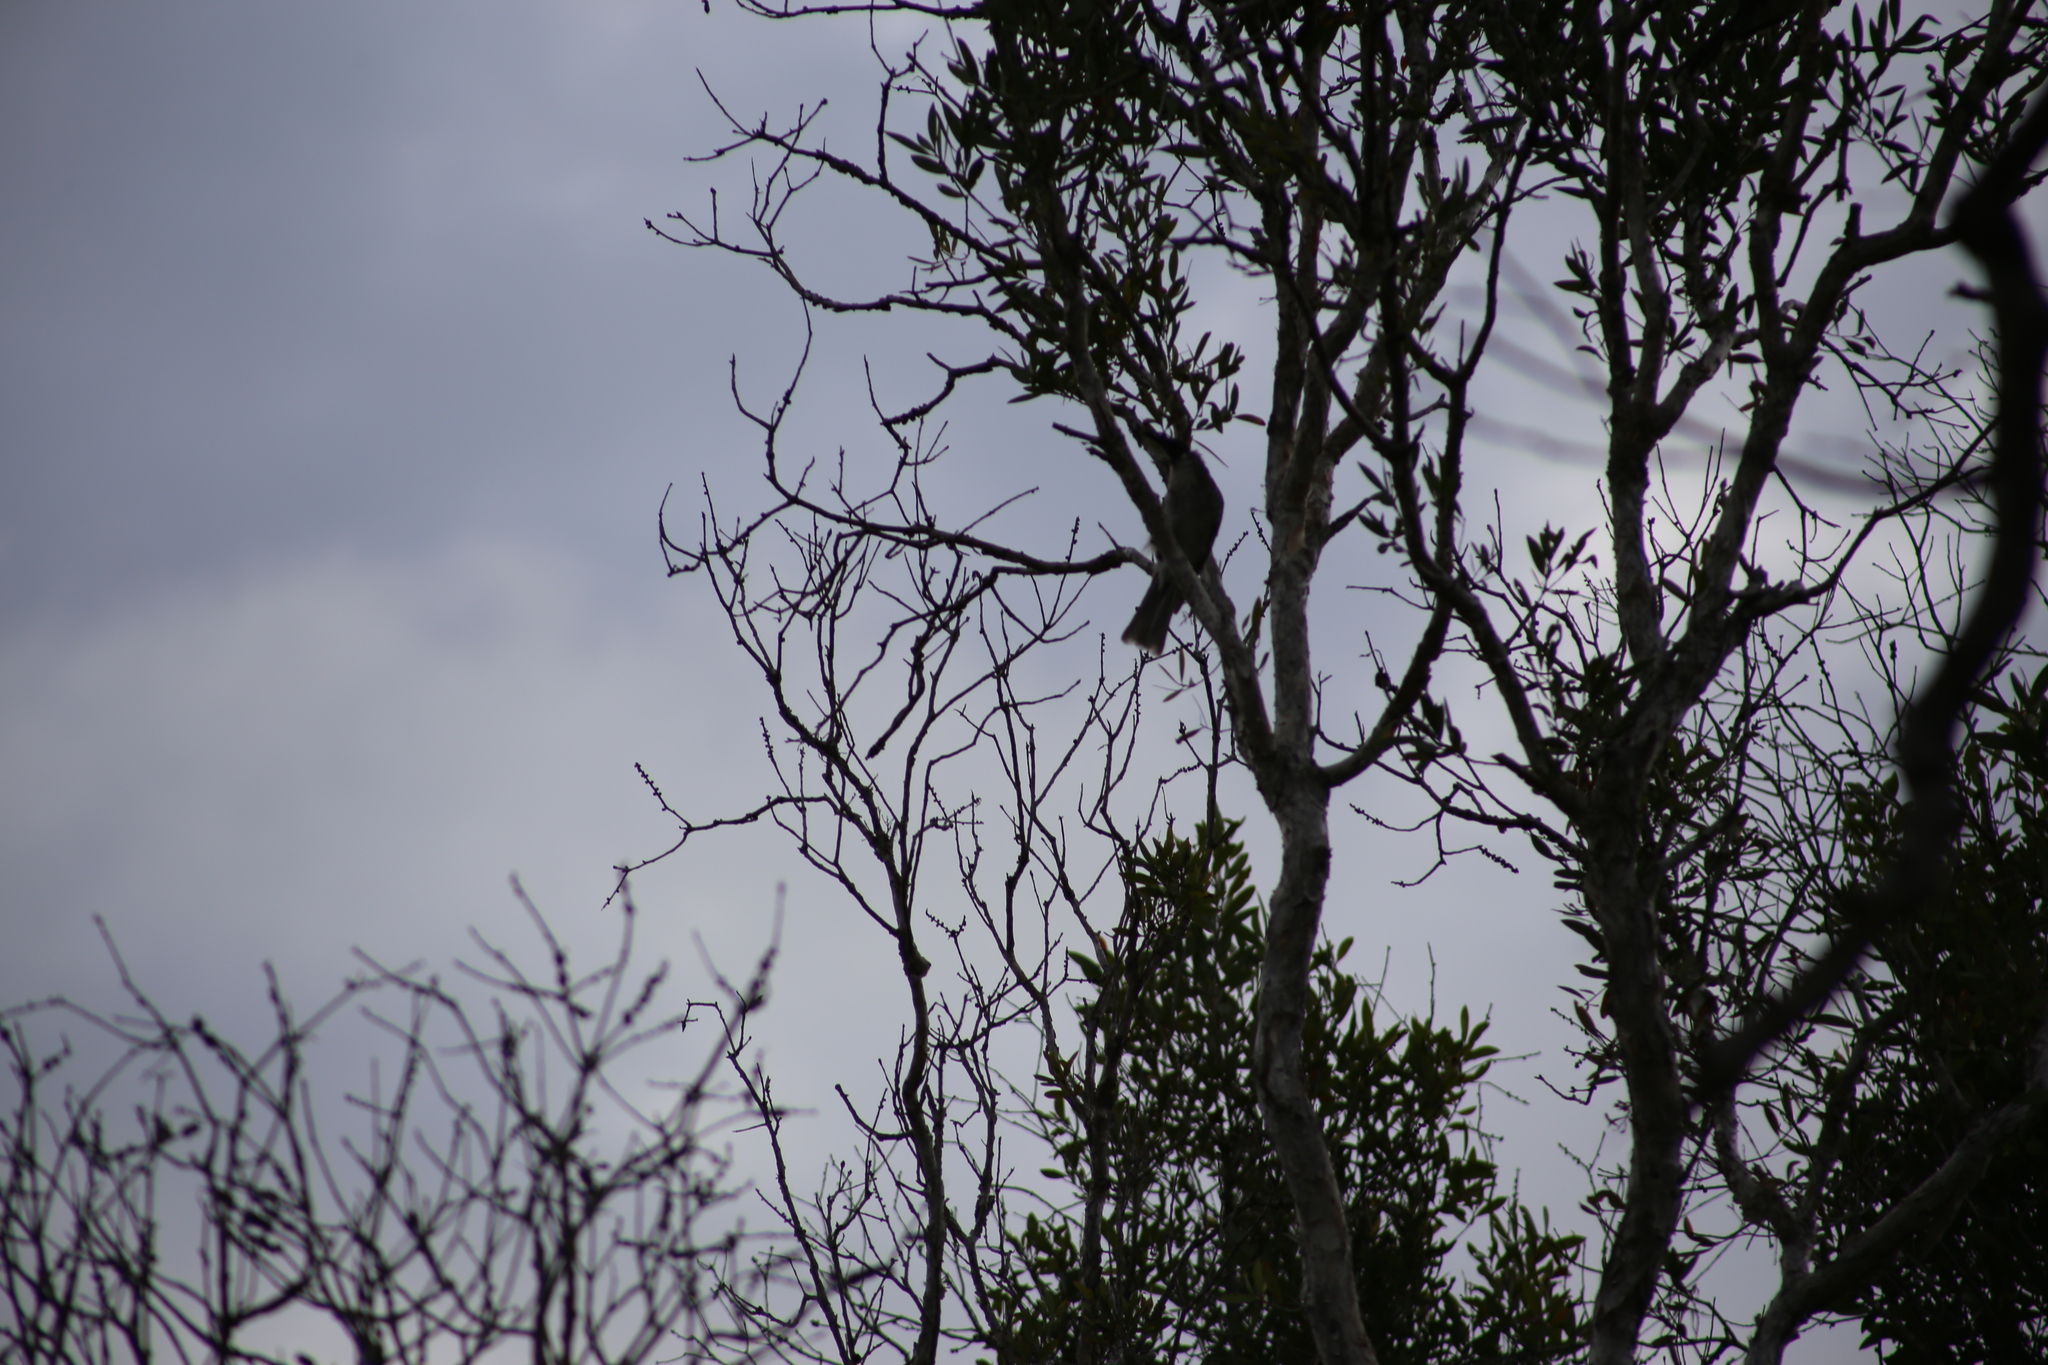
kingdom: Animalia
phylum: Chordata
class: Aves
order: Passeriformes
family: Meliphagidae
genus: Philemon
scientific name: Philemon corniculatus
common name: Noisy friarbird
